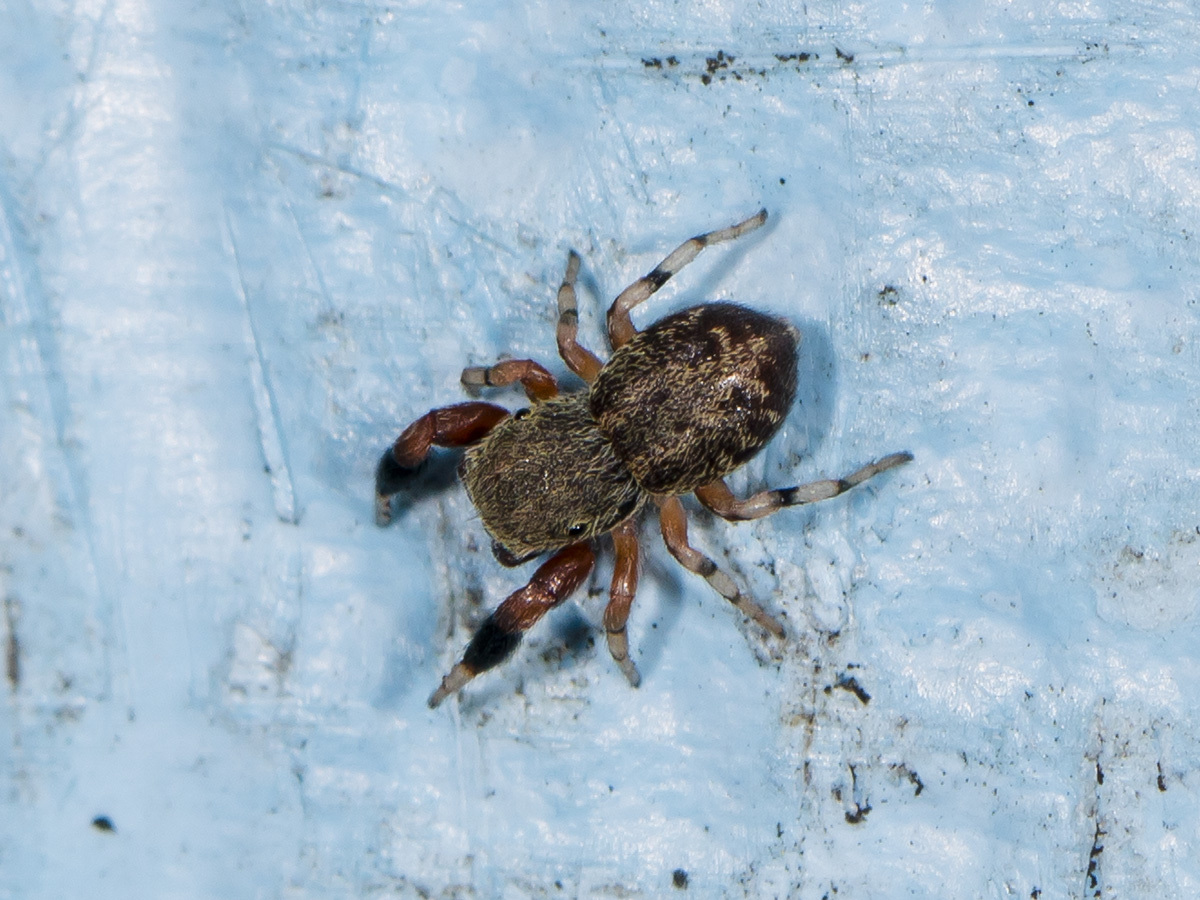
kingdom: Animalia
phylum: Arthropoda
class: Arachnida
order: Araneae
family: Salticidae
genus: Ballus
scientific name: Ballus chalybeius
